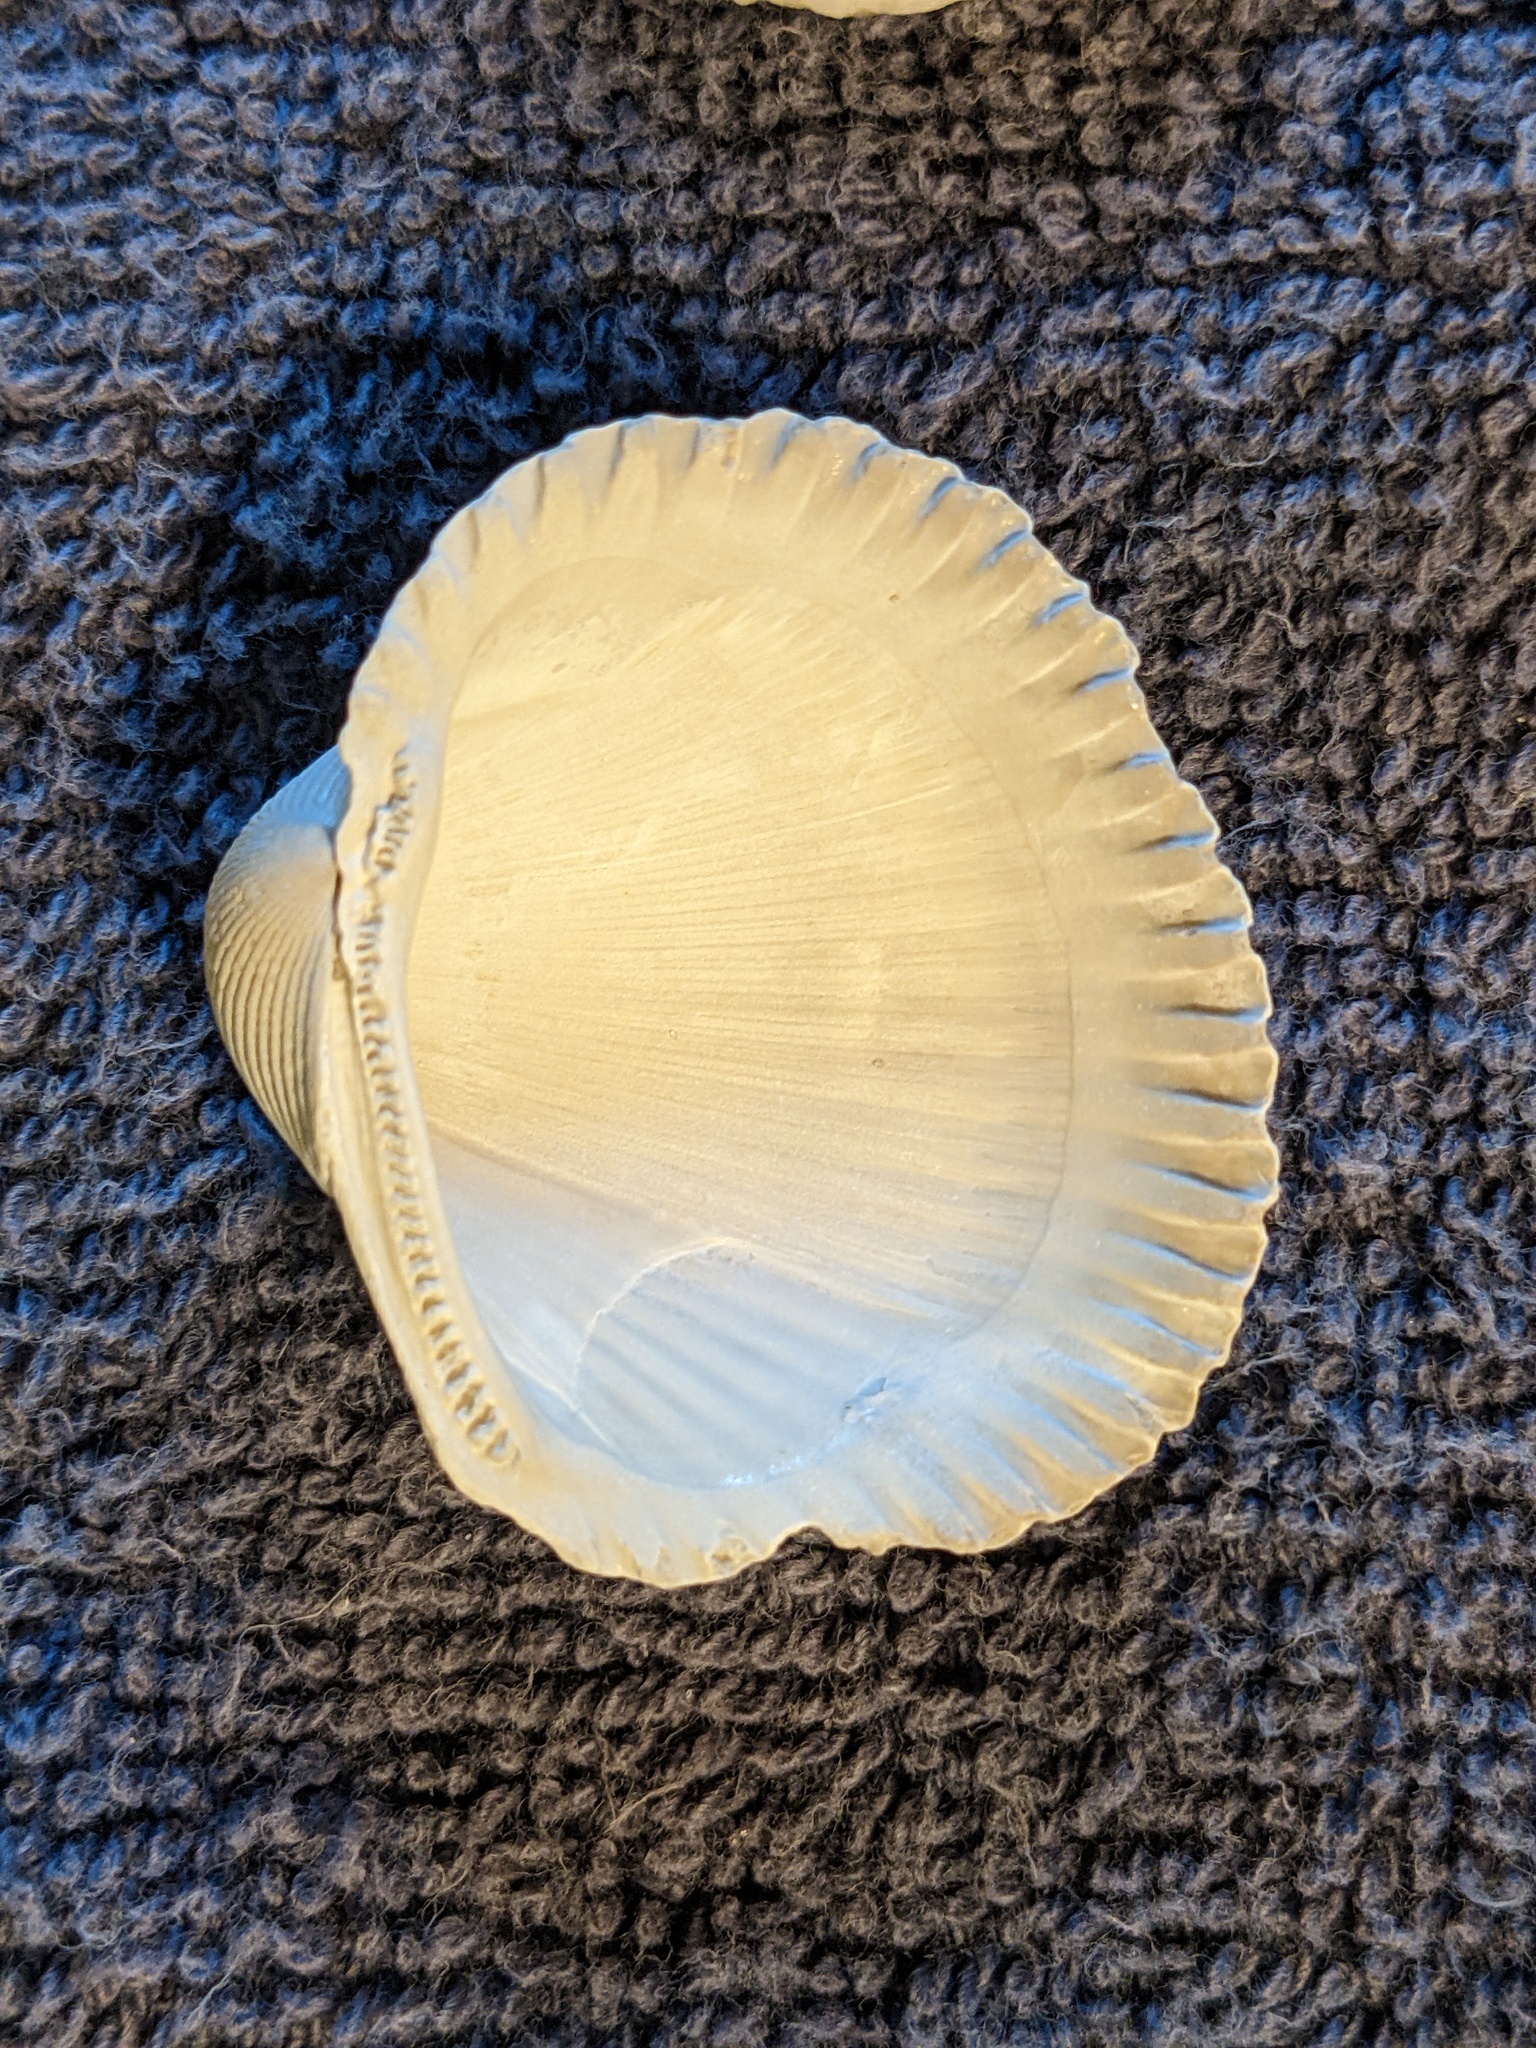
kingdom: Animalia
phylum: Mollusca
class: Bivalvia
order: Arcida
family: Arcidae
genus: Lunarca
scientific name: Lunarca ovalis
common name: Blood ark
